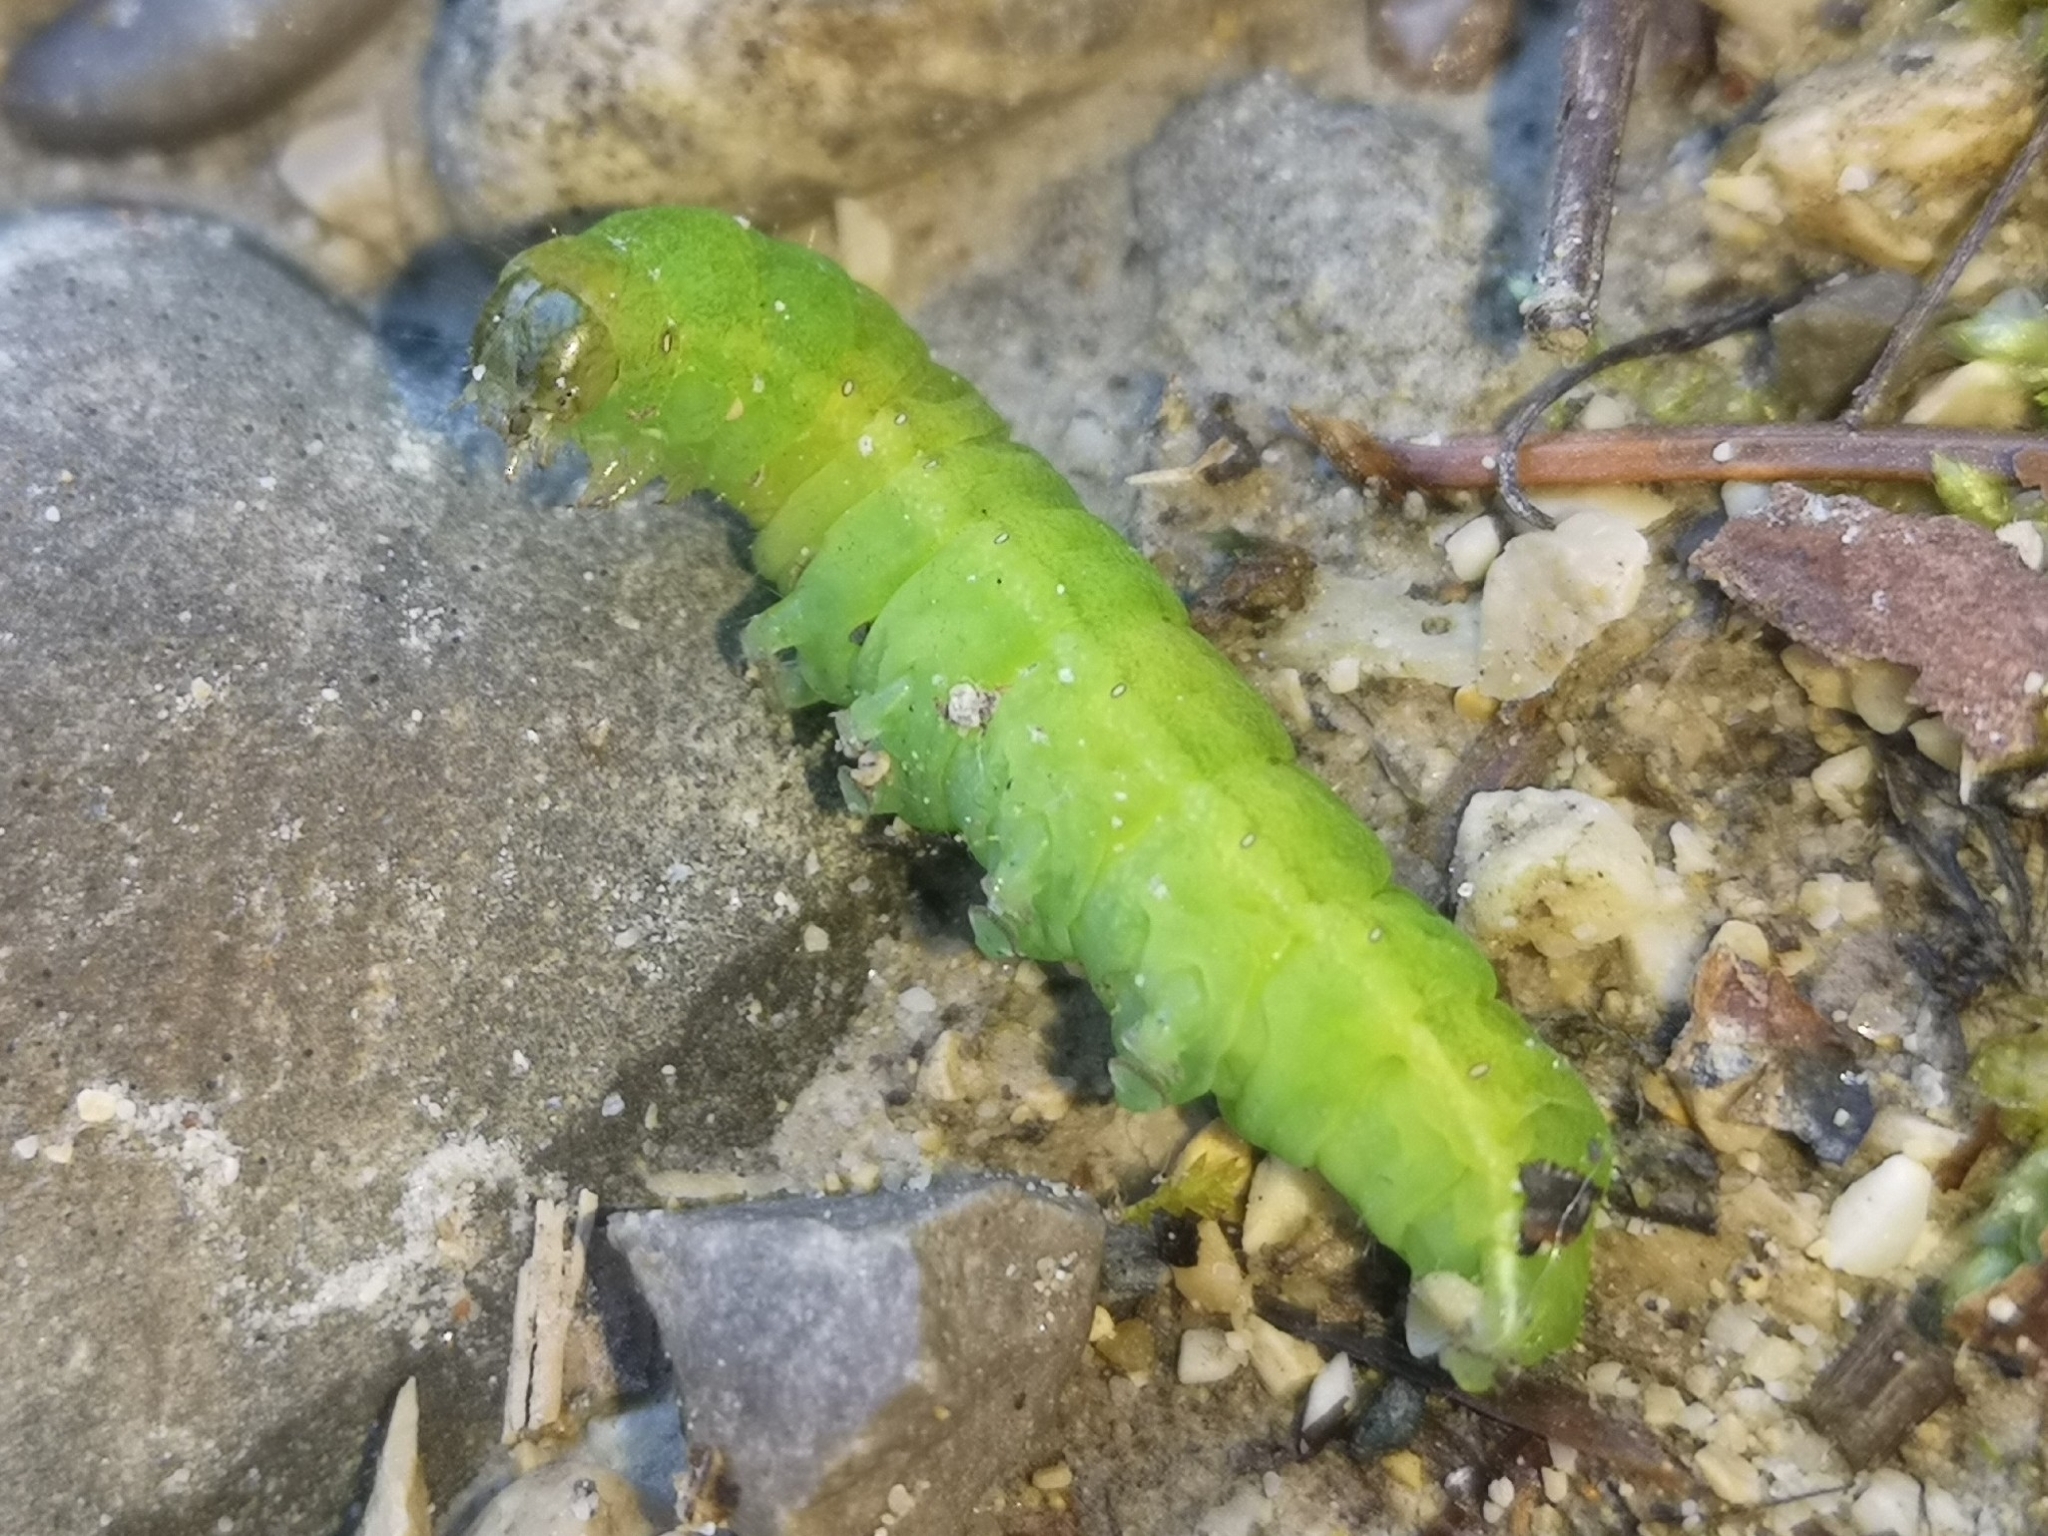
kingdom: Animalia
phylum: Arthropoda
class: Insecta
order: Lepidoptera
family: Noctuidae
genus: Phlogophora
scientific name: Phlogophora meticulosa
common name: Angle shades
